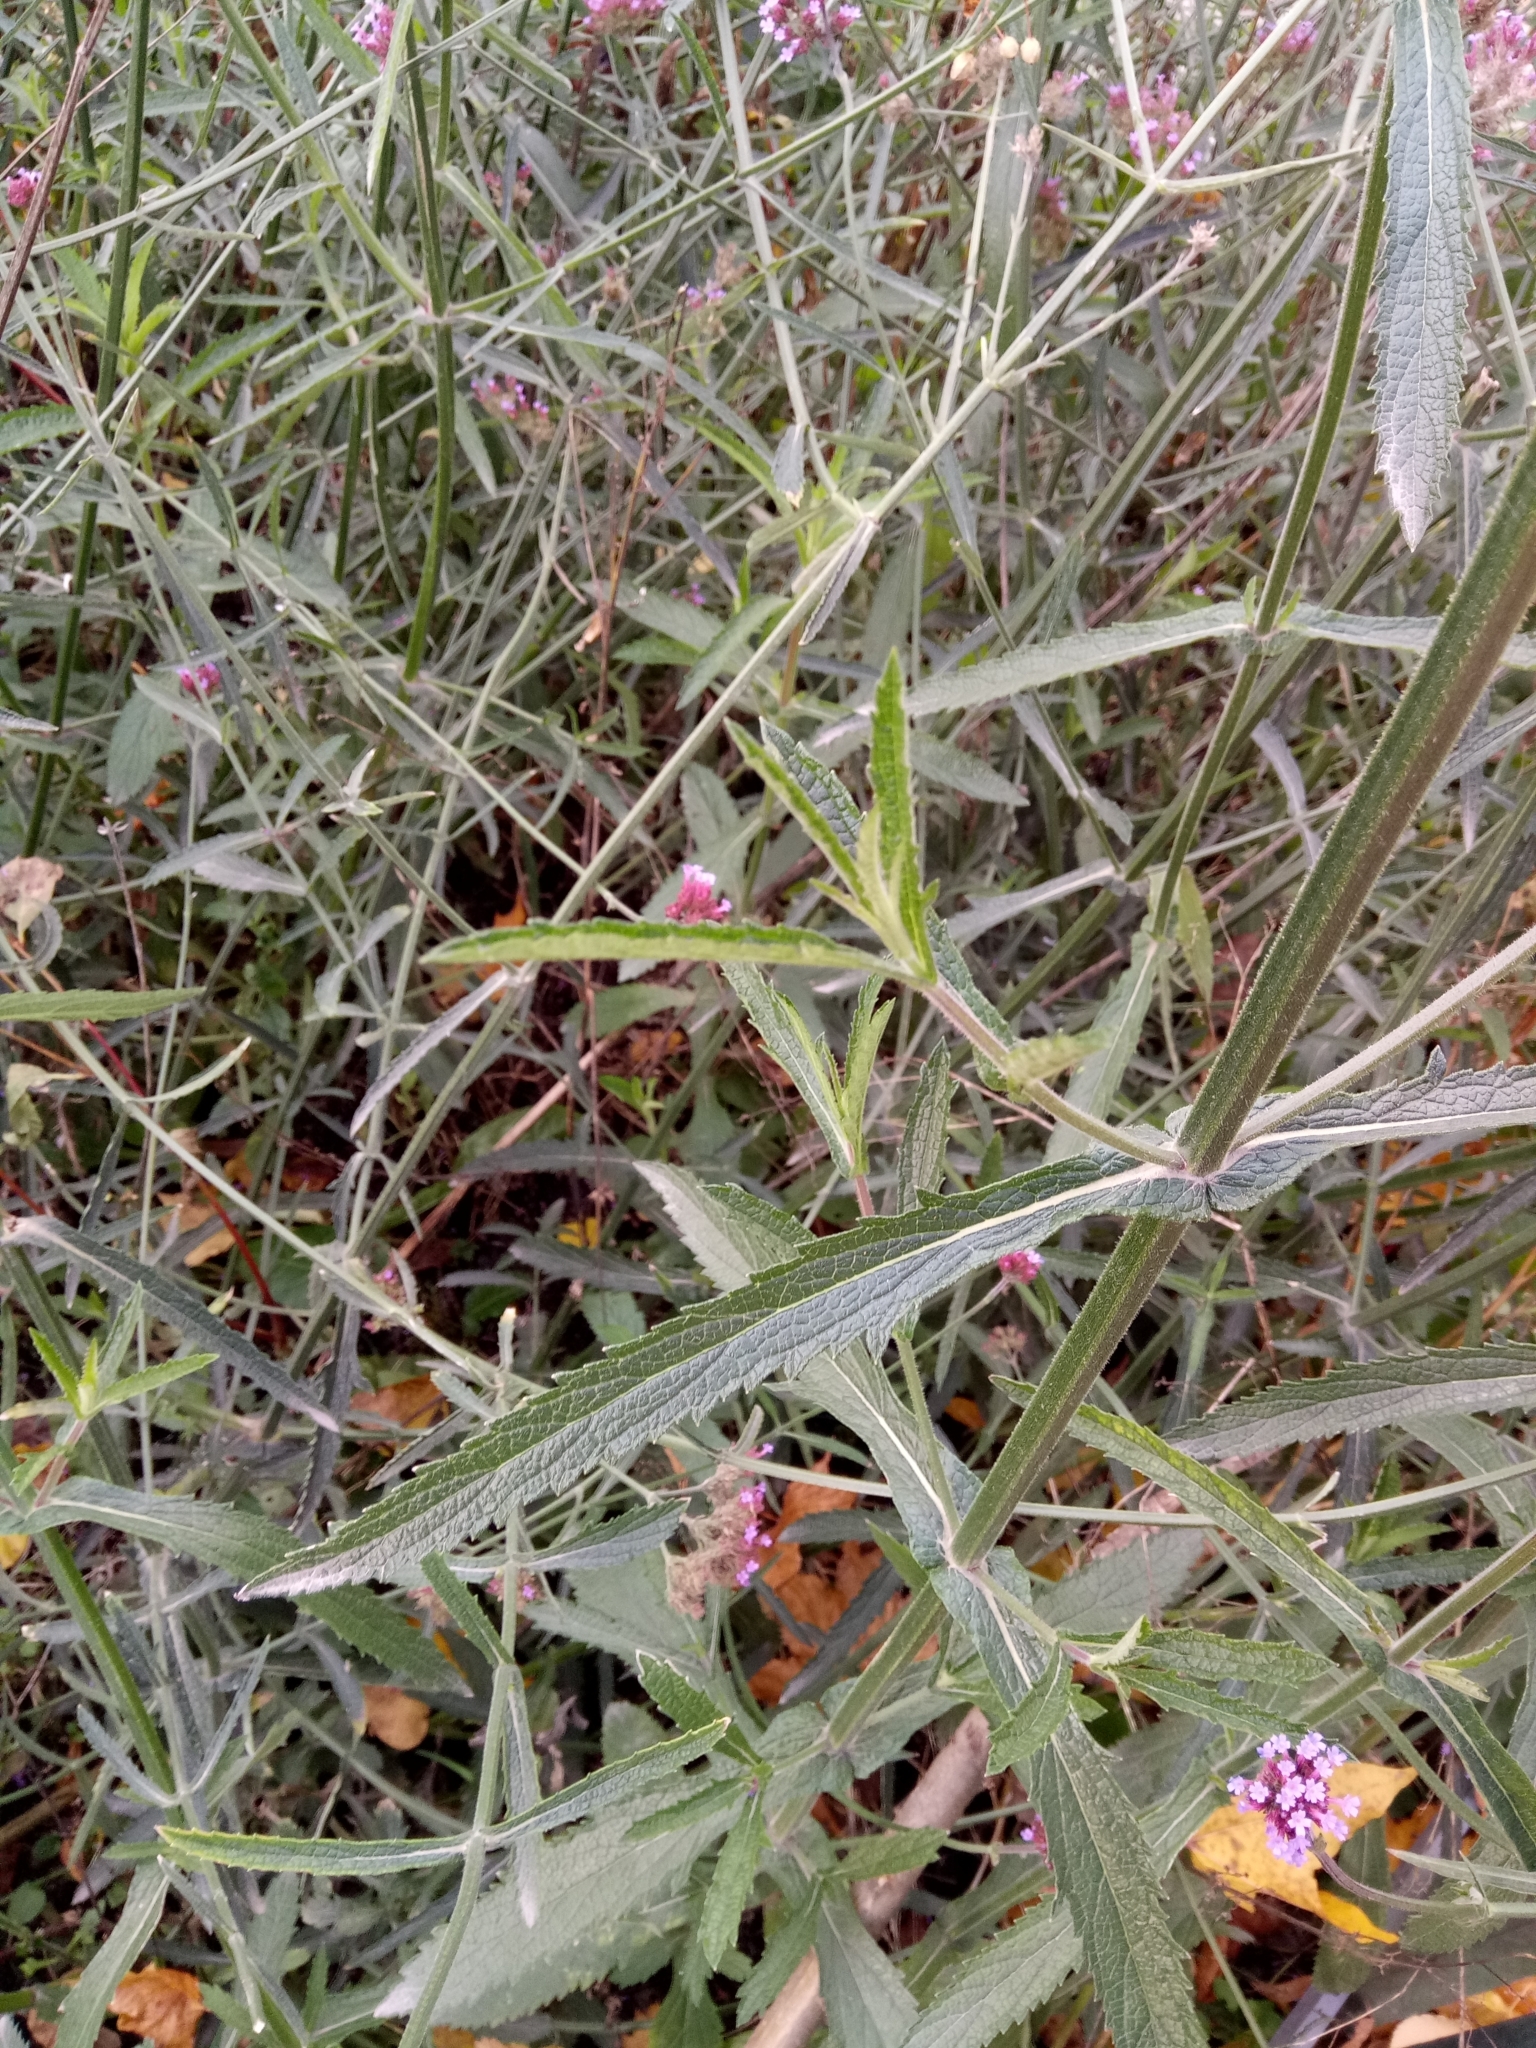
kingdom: Plantae
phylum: Tracheophyta
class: Magnoliopsida
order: Lamiales
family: Verbenaceae
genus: Verbena
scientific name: Verbena bonariensis
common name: Purpletop vervain
